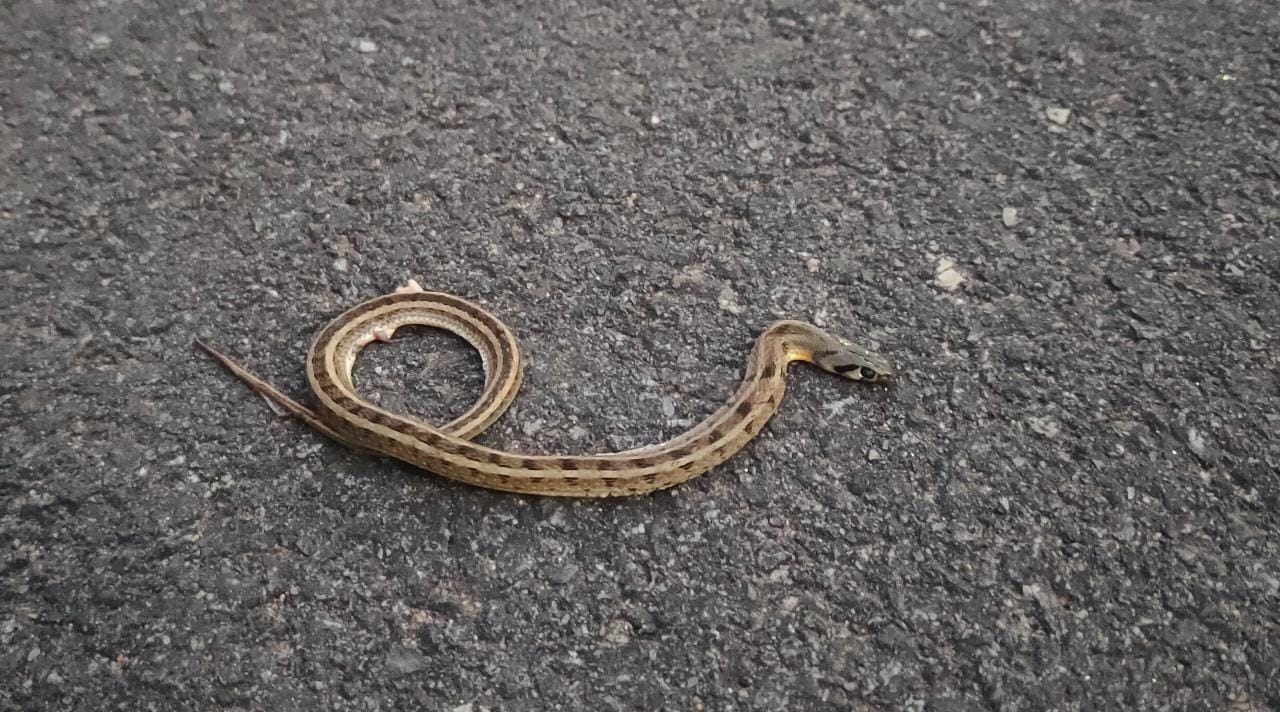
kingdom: Animalia
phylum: Chordata
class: Squamata
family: Colubridae
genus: Amphiesma
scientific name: Amphiesma stolatum
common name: Buff striped keelback
